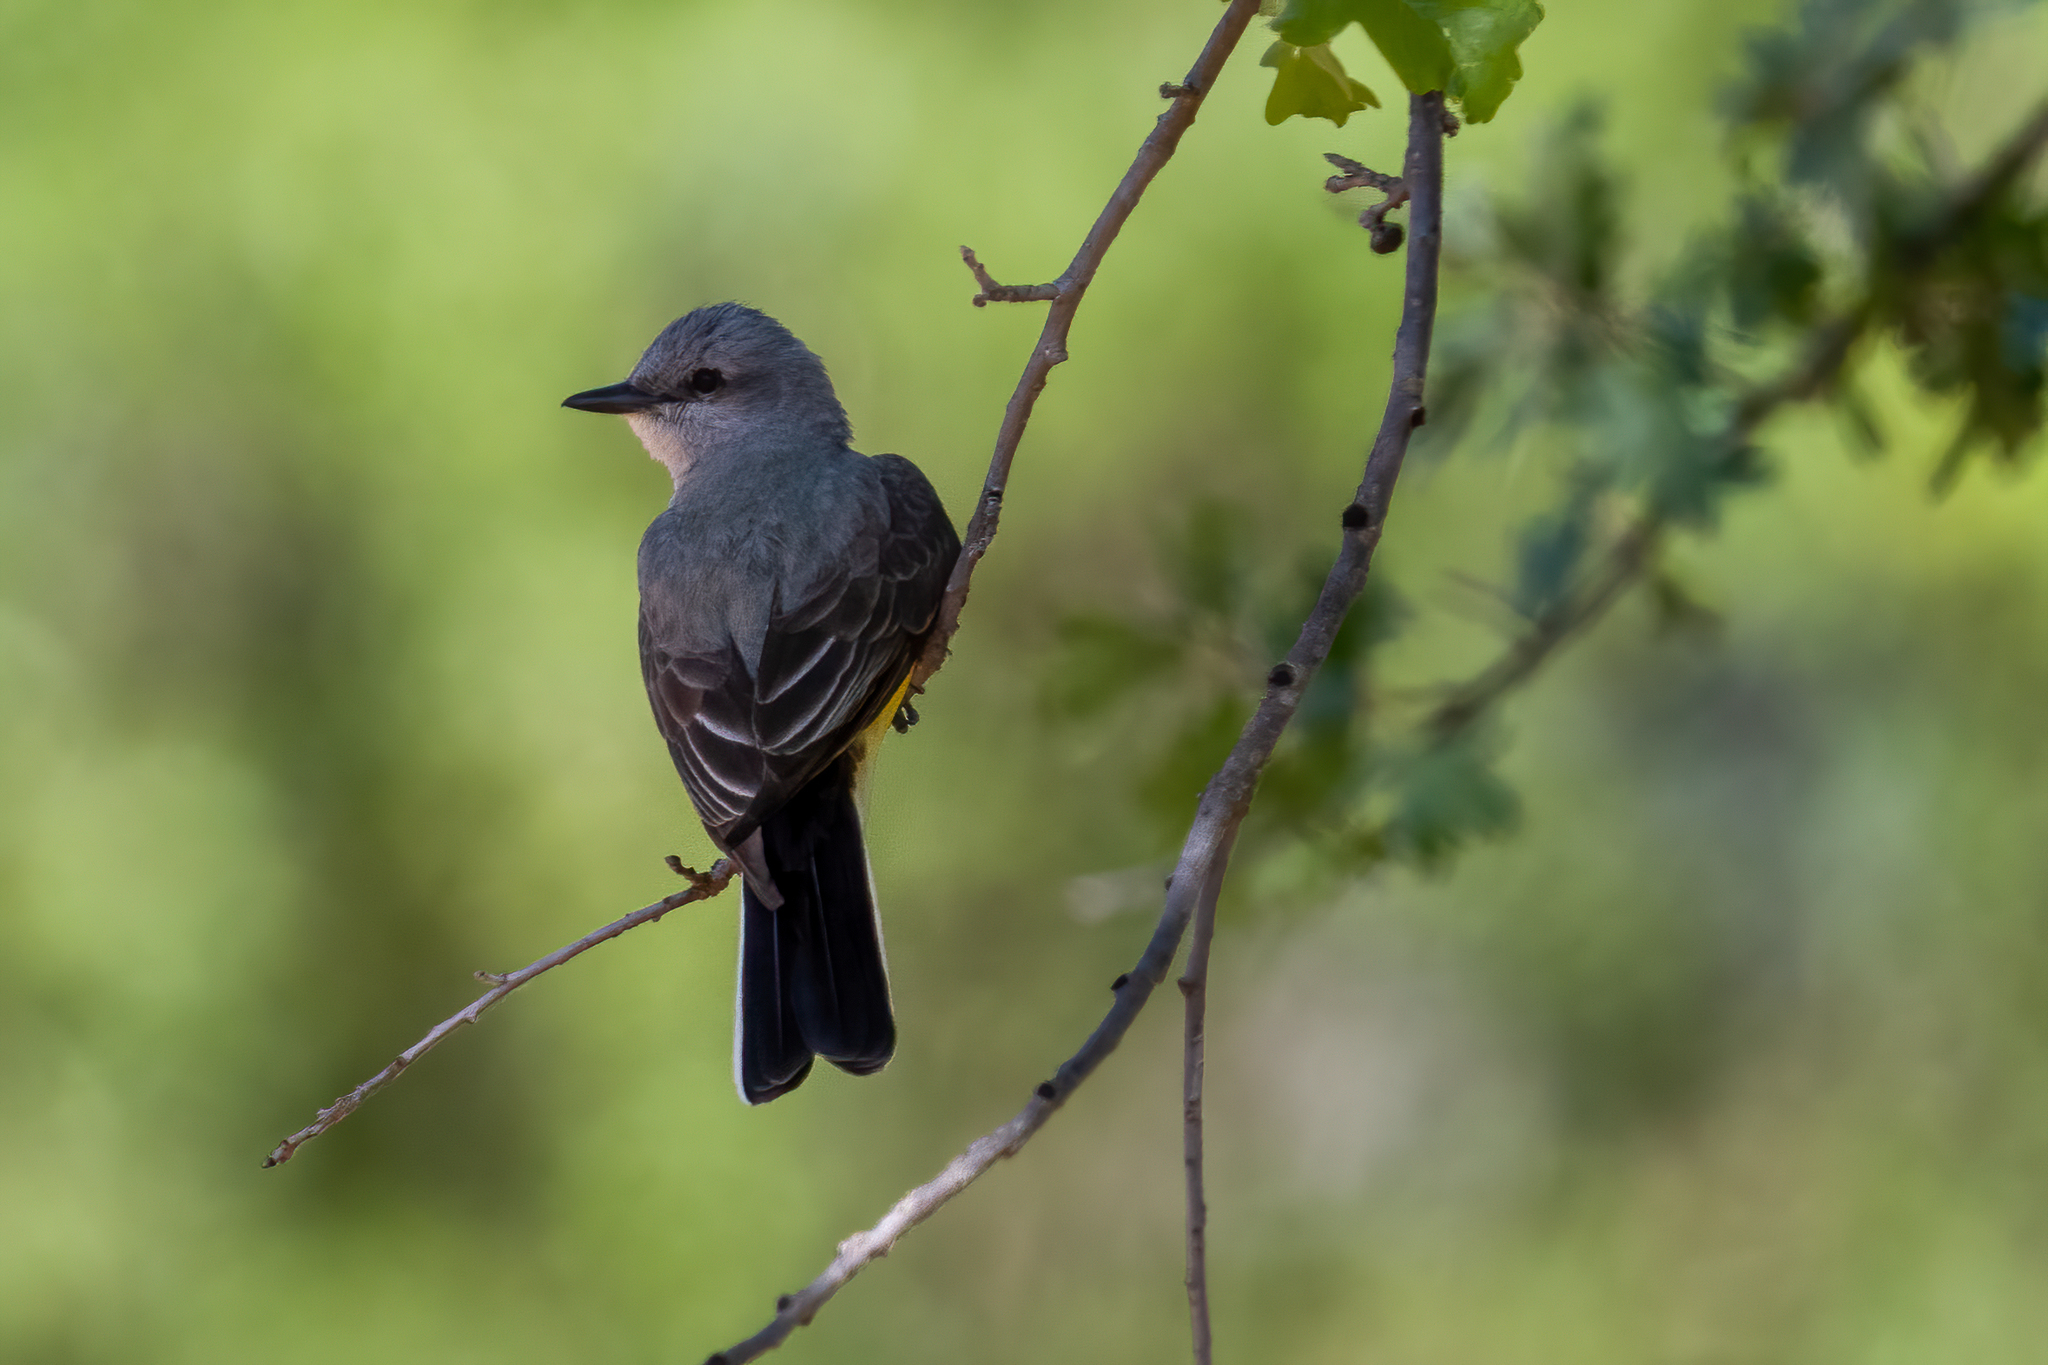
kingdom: Animalia
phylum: Chordata
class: Aves
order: Passeriformes
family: Tyrannidae
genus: Tyrannus
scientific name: Tyrannus verticalis
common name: Western kingbird
